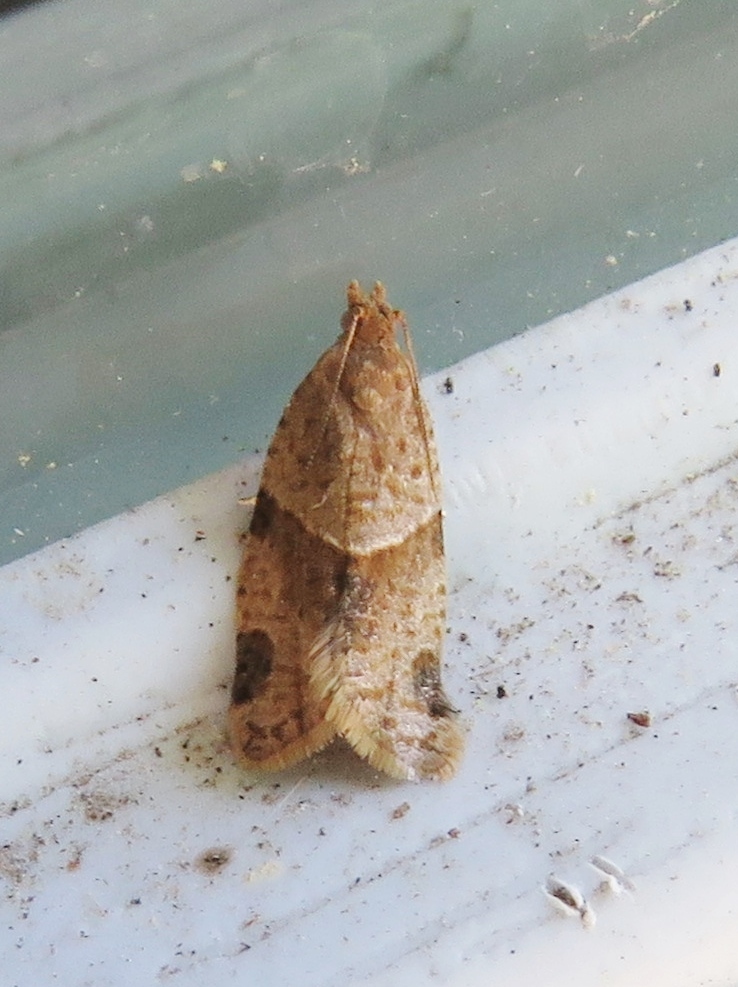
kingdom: Animalia
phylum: Arthropoda
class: Insecta
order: Lepidoptera
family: Tortricidae
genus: Clepsis
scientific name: Clepsis peritana
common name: Garden tortrix
